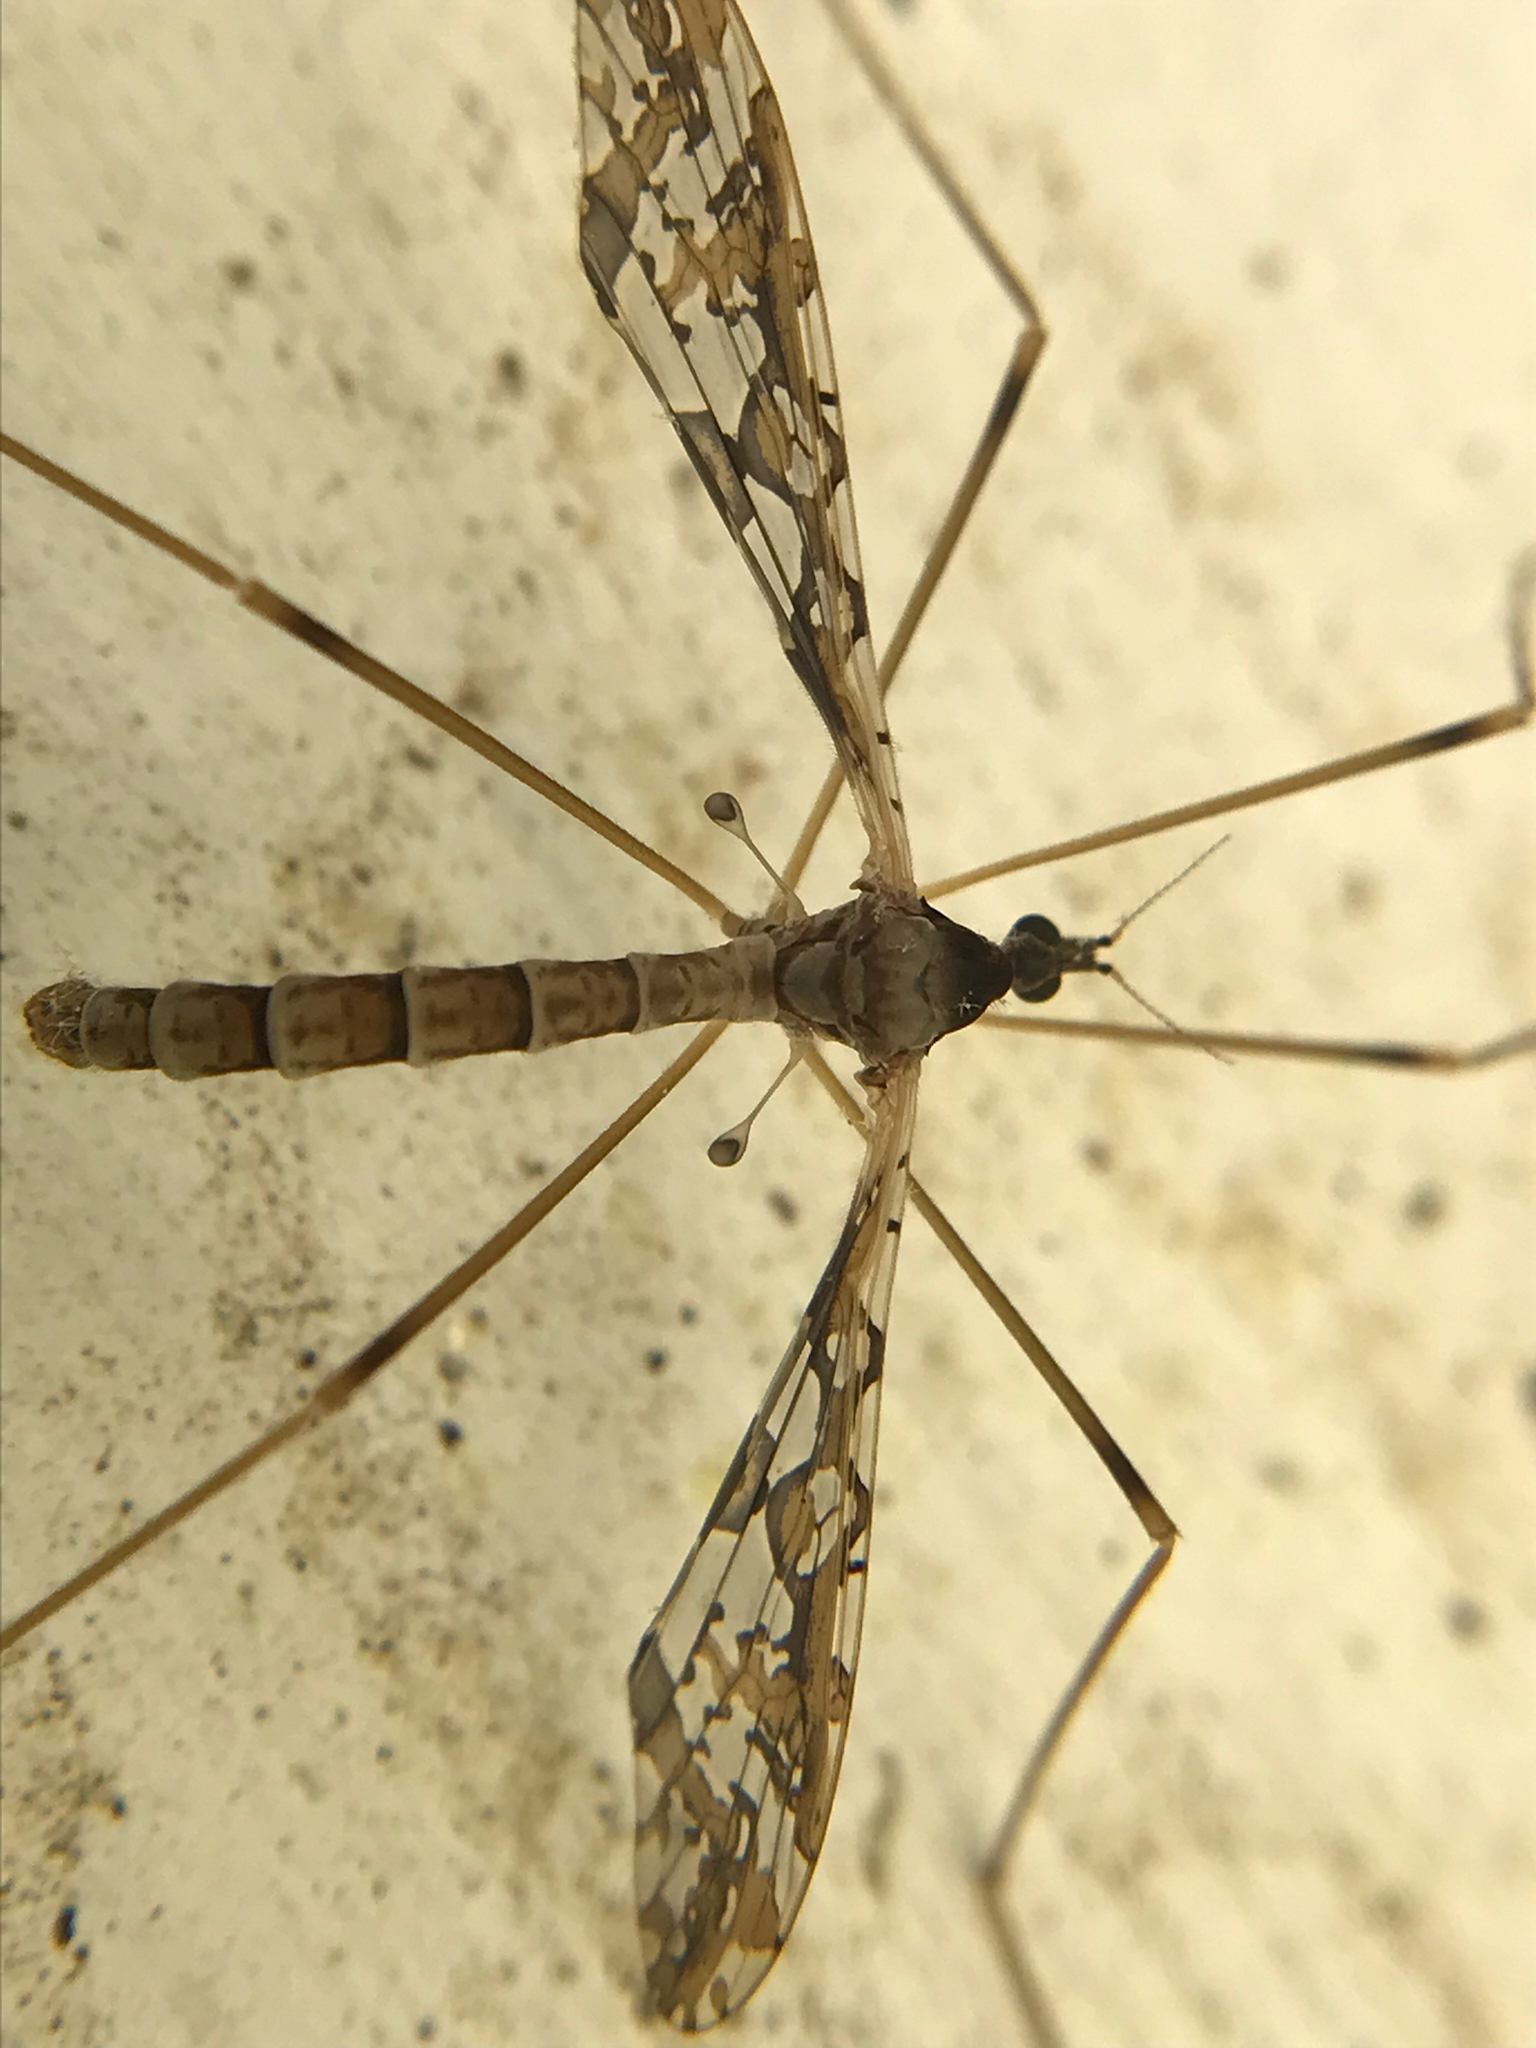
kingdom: Animalia
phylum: Arthropoda
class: Insecta
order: Diptera
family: Limoniidae
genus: Epiphragma
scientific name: Epiphragma solatrix
